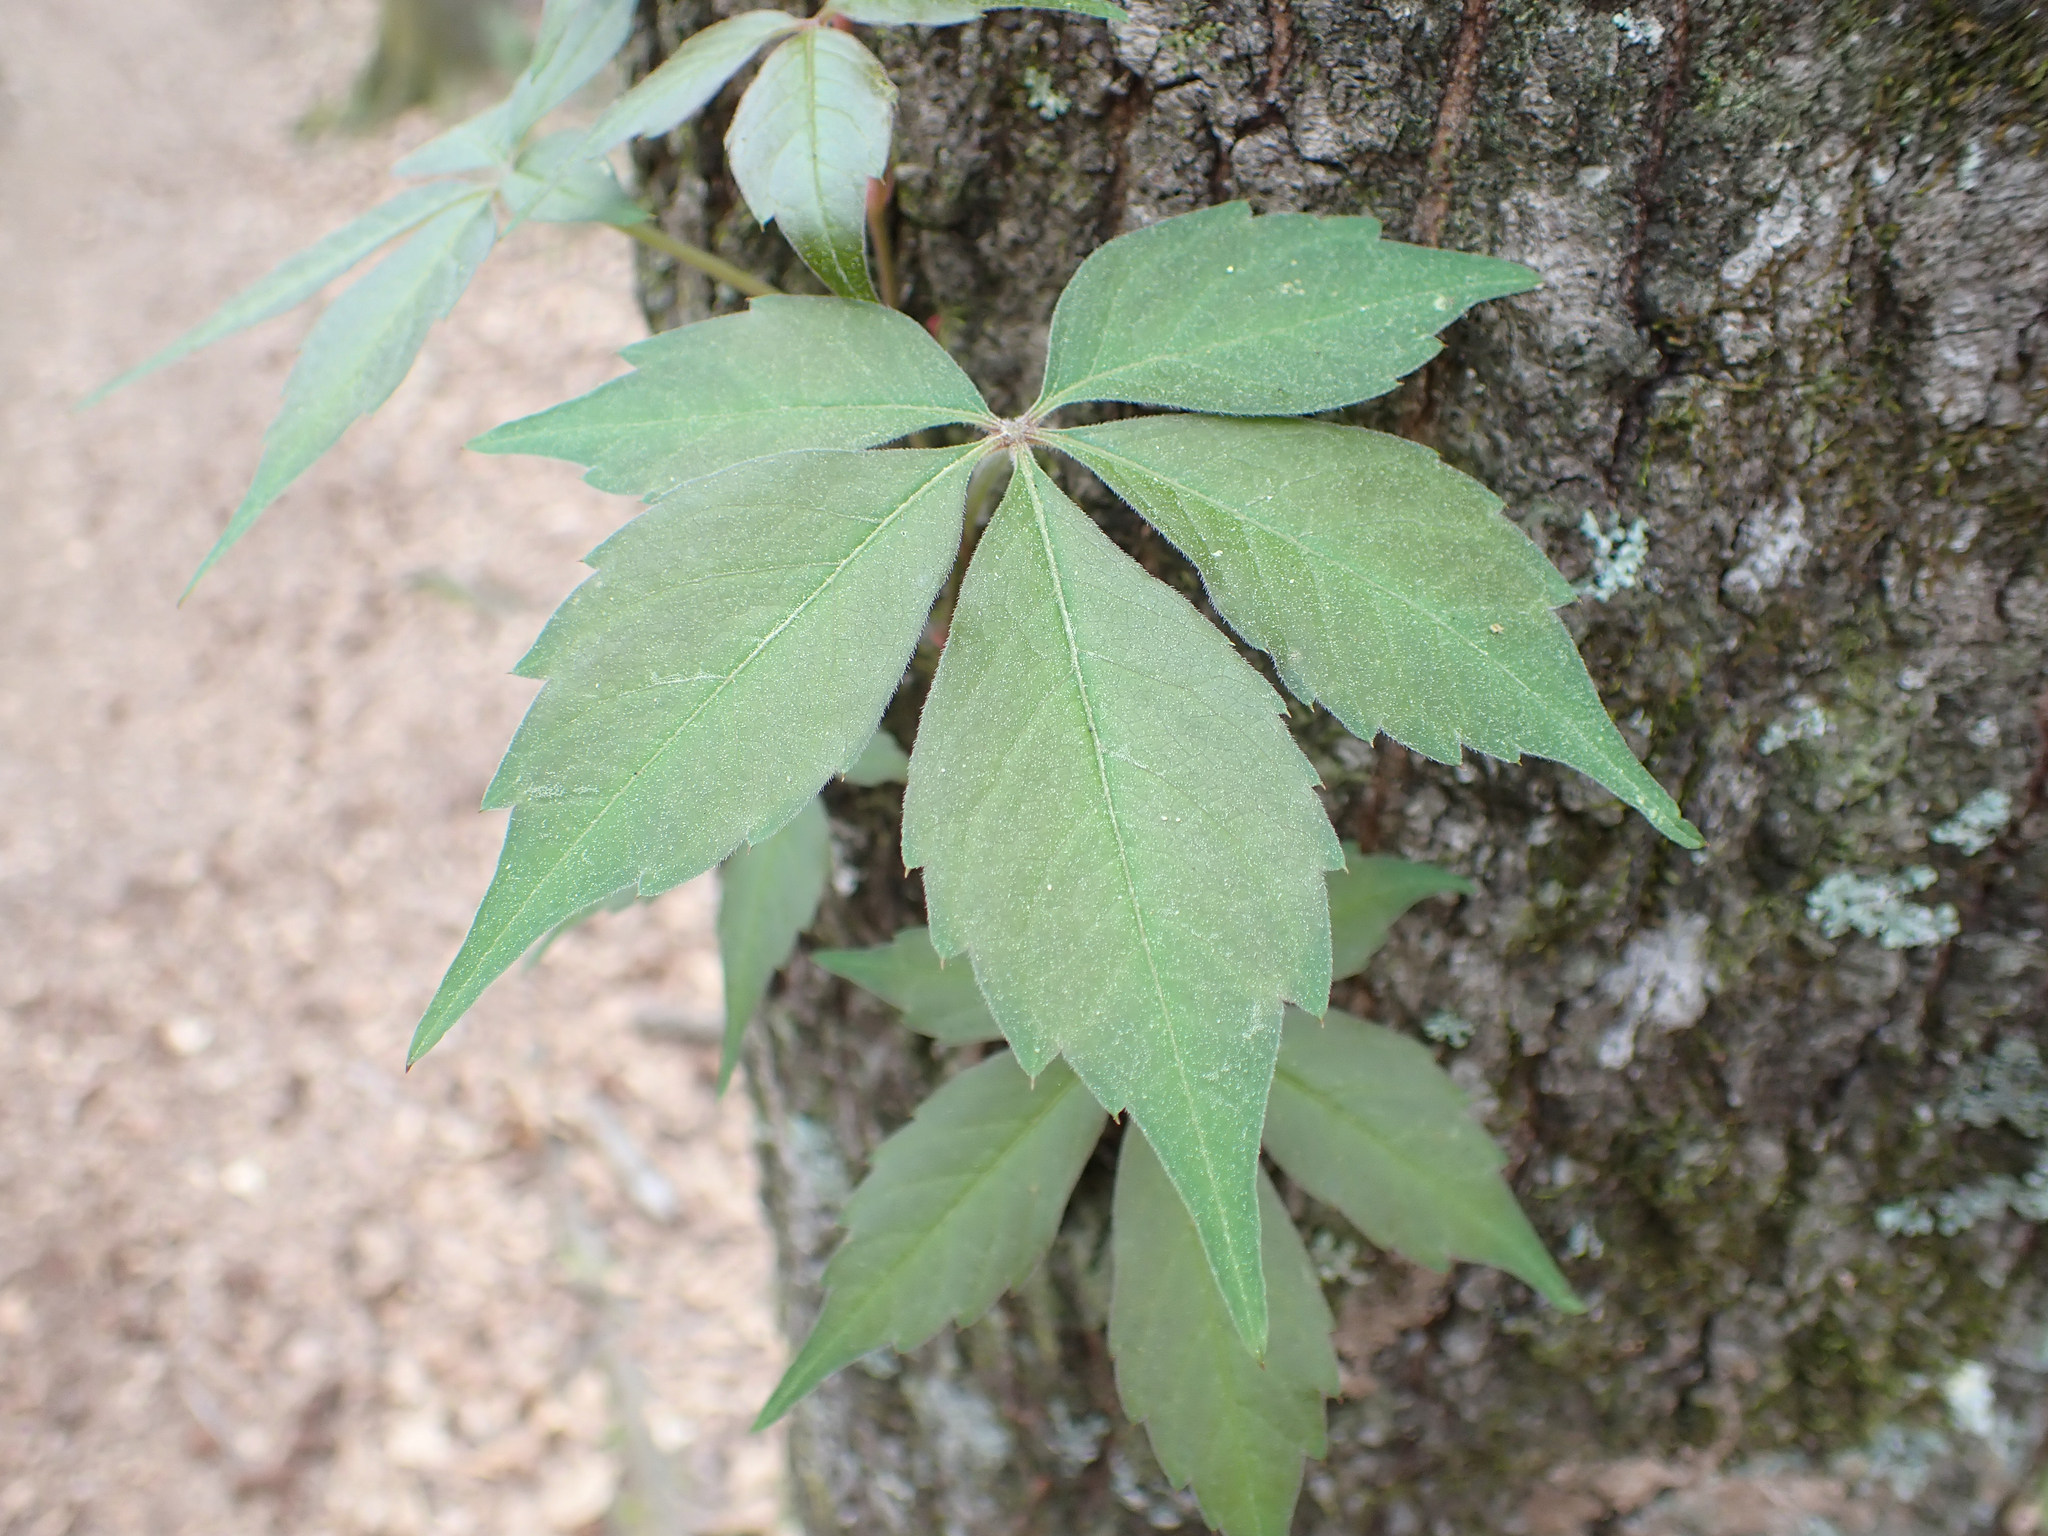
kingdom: Plantae
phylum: Tracheophyta
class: Magnoliopsida
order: Vitales
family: Vitaceae
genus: Parthenocissus
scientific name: Parthenocissus quinquefolia
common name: Virginia-creeper
